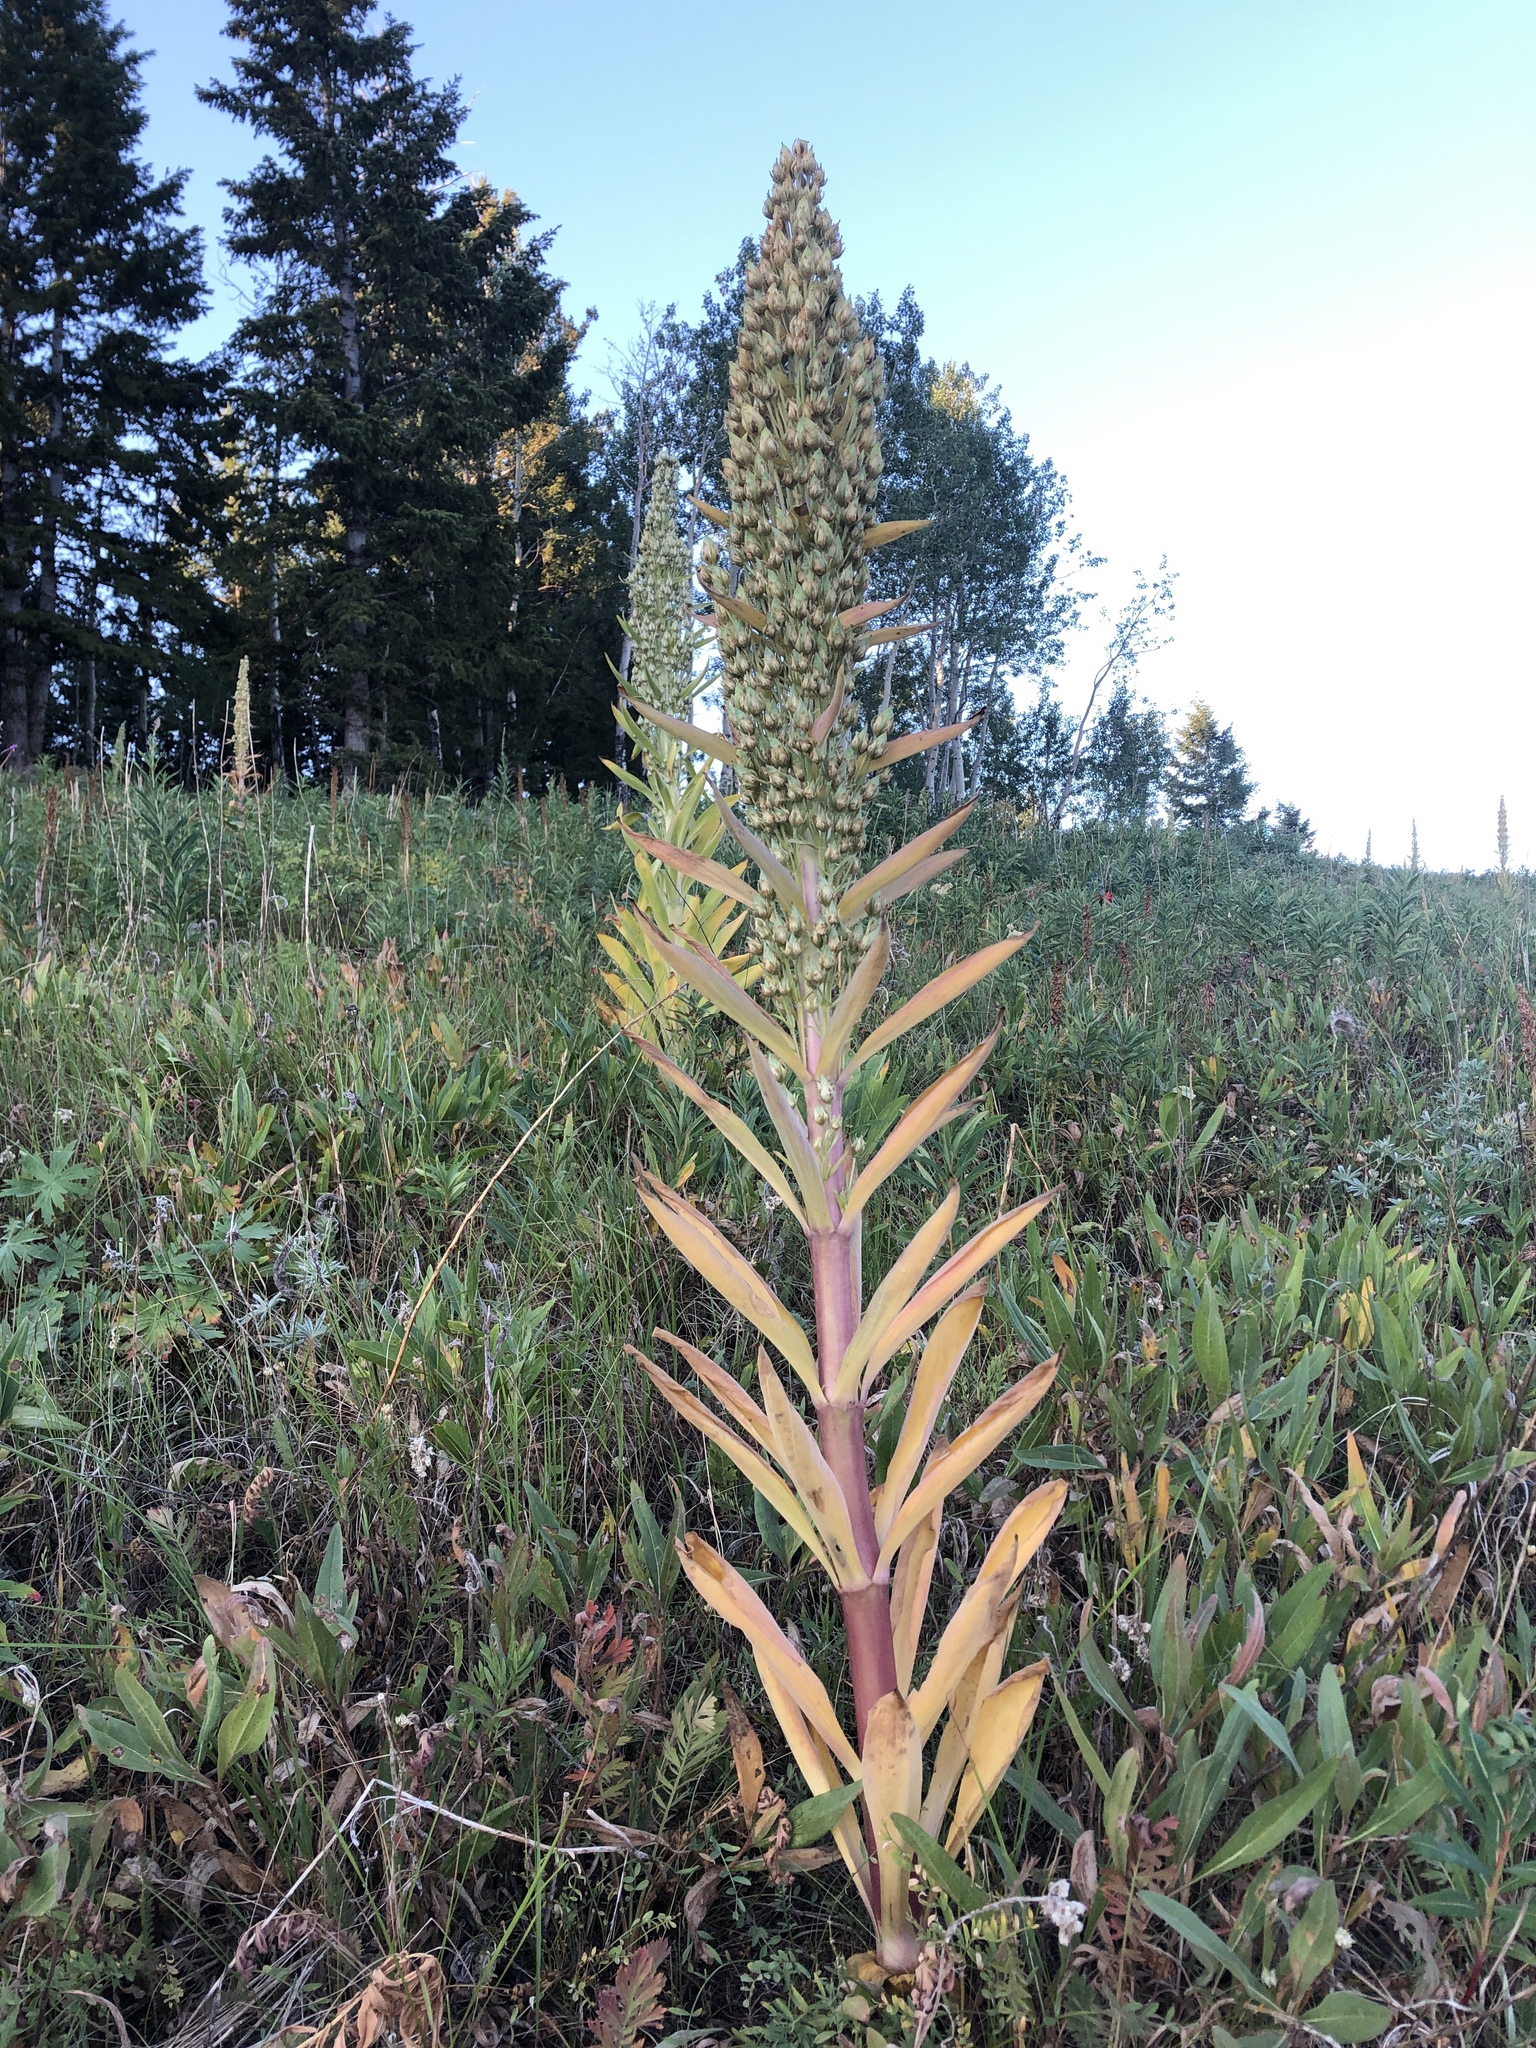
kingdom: Plantae
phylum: Tracheophyta
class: Magnoliopsida
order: Gentianales
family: Gentianaceae
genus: Frasera
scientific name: Frasera speciosa
